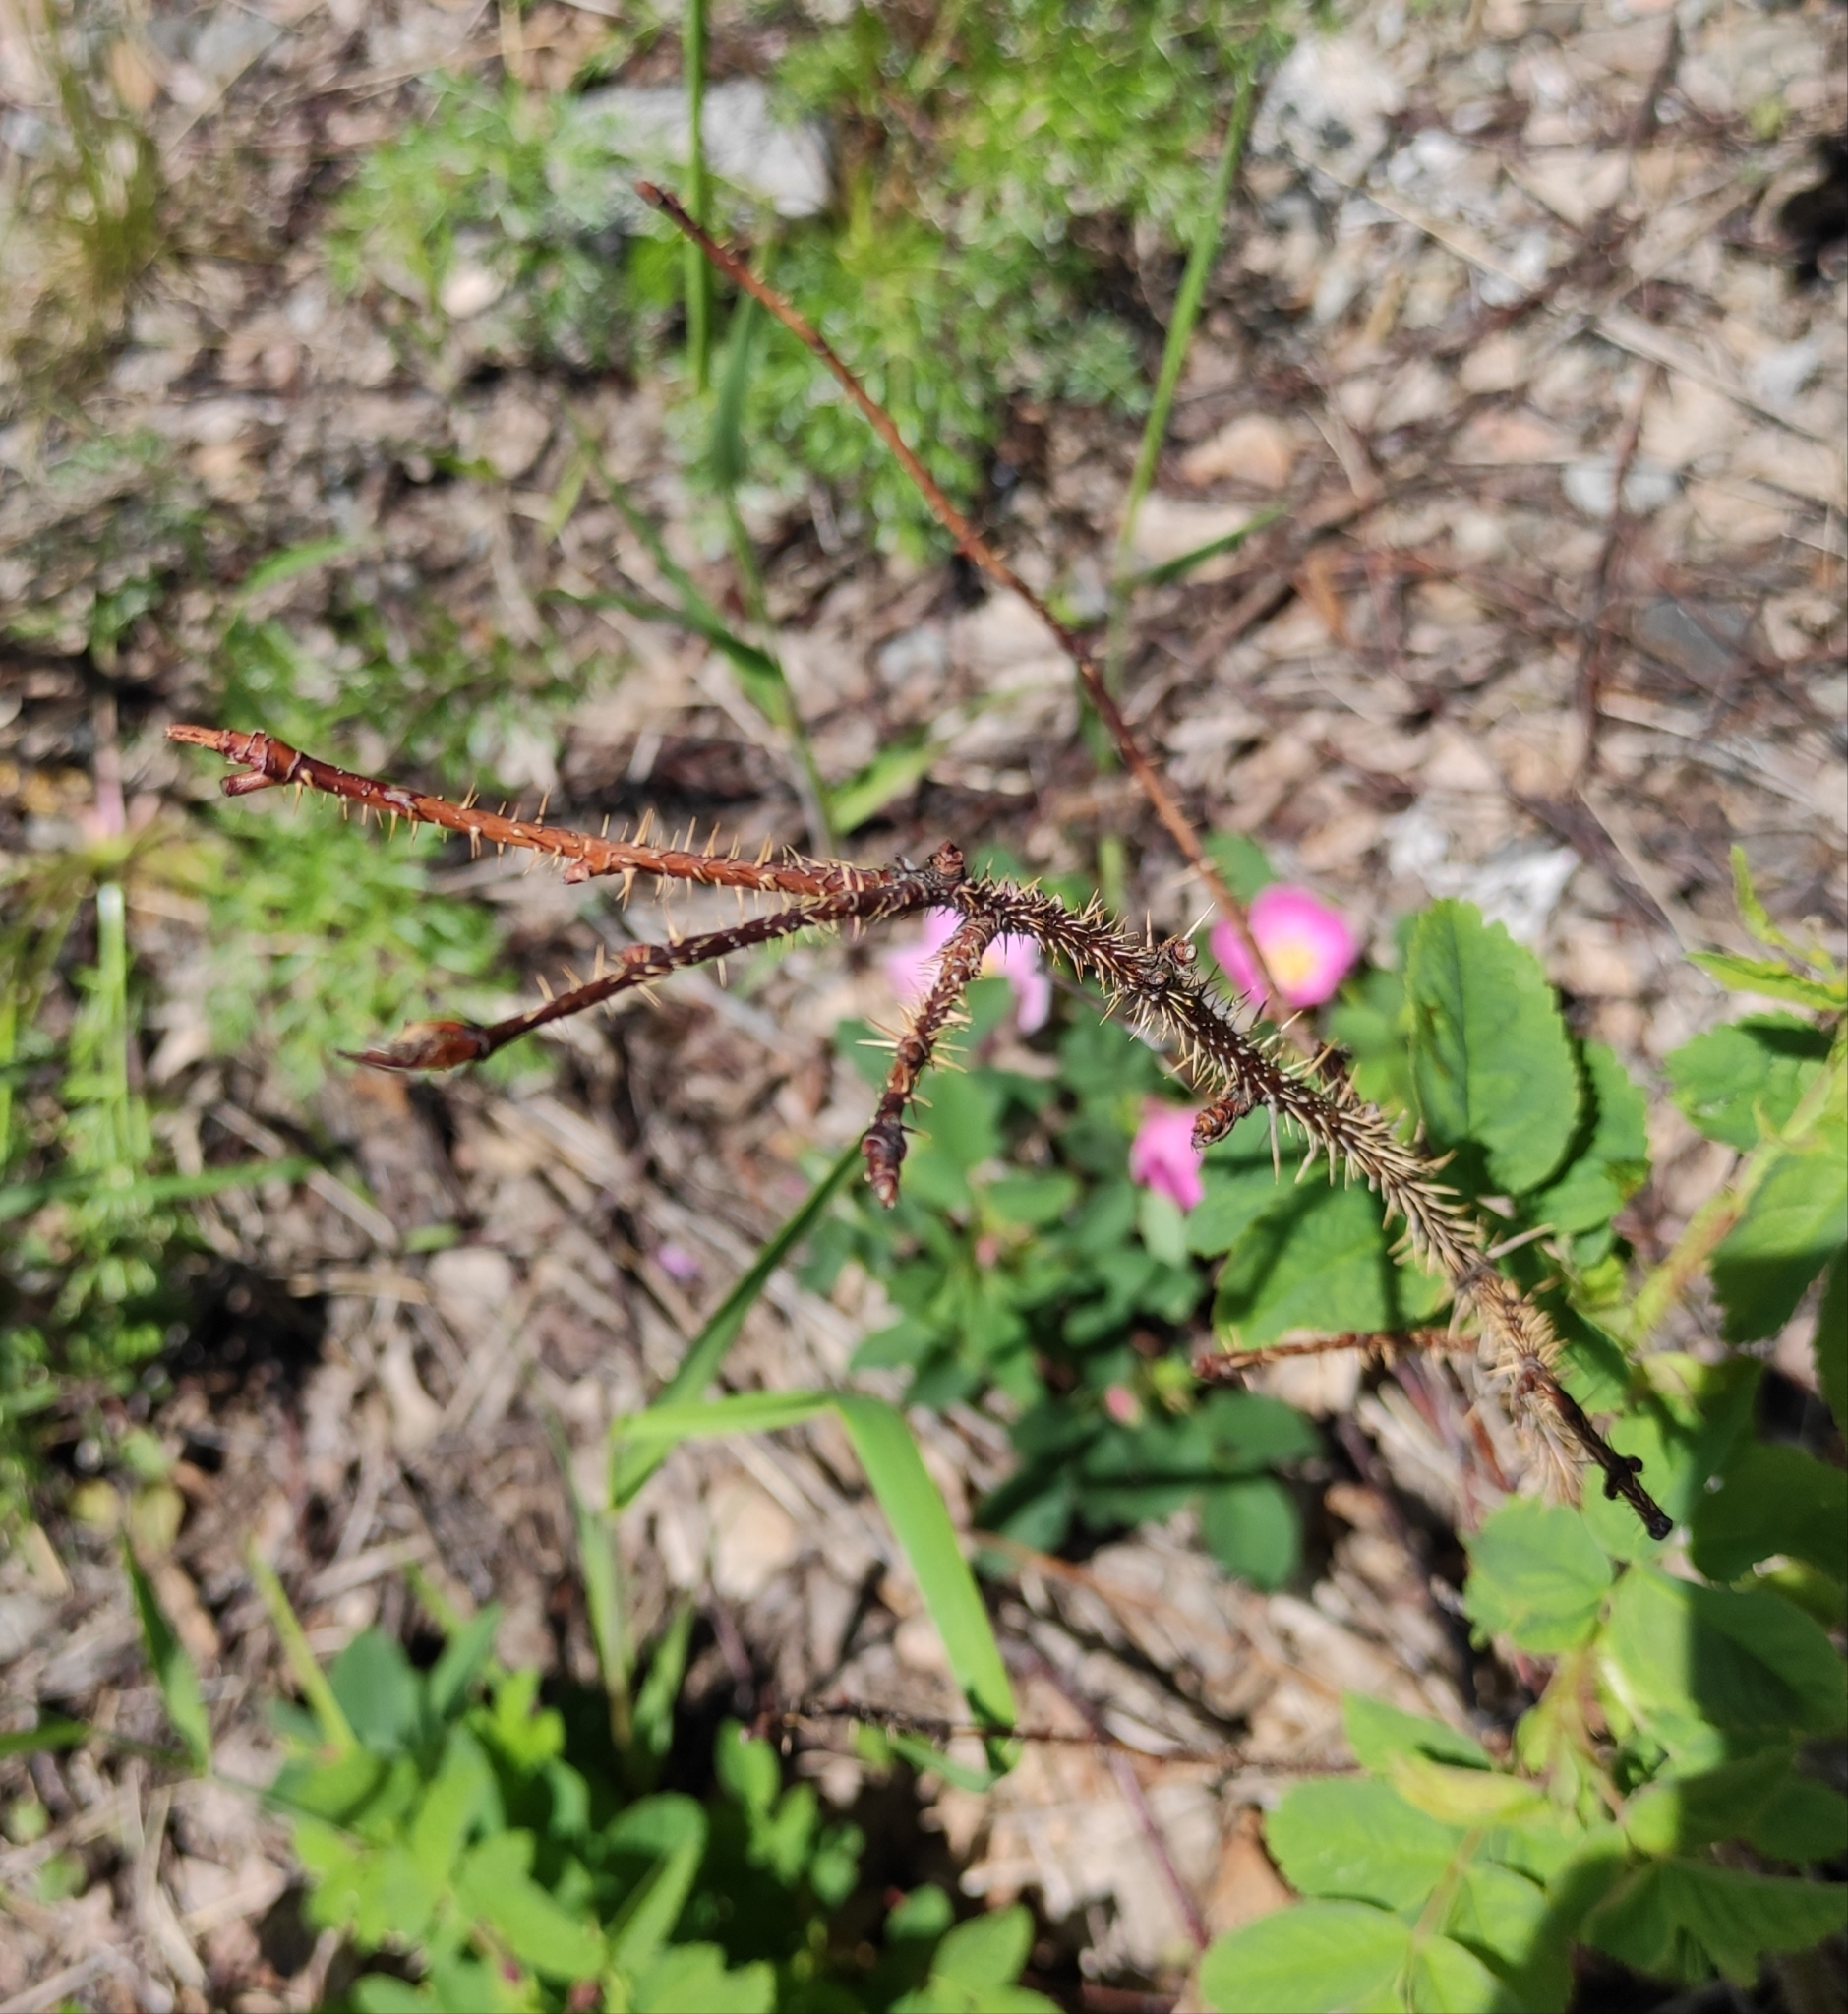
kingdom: Plantae
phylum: Tracheophyta
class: Magnoliopsida
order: Rosales
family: Rosaceae
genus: Rosa
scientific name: Rosa majalis
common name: Cinnamon rose
